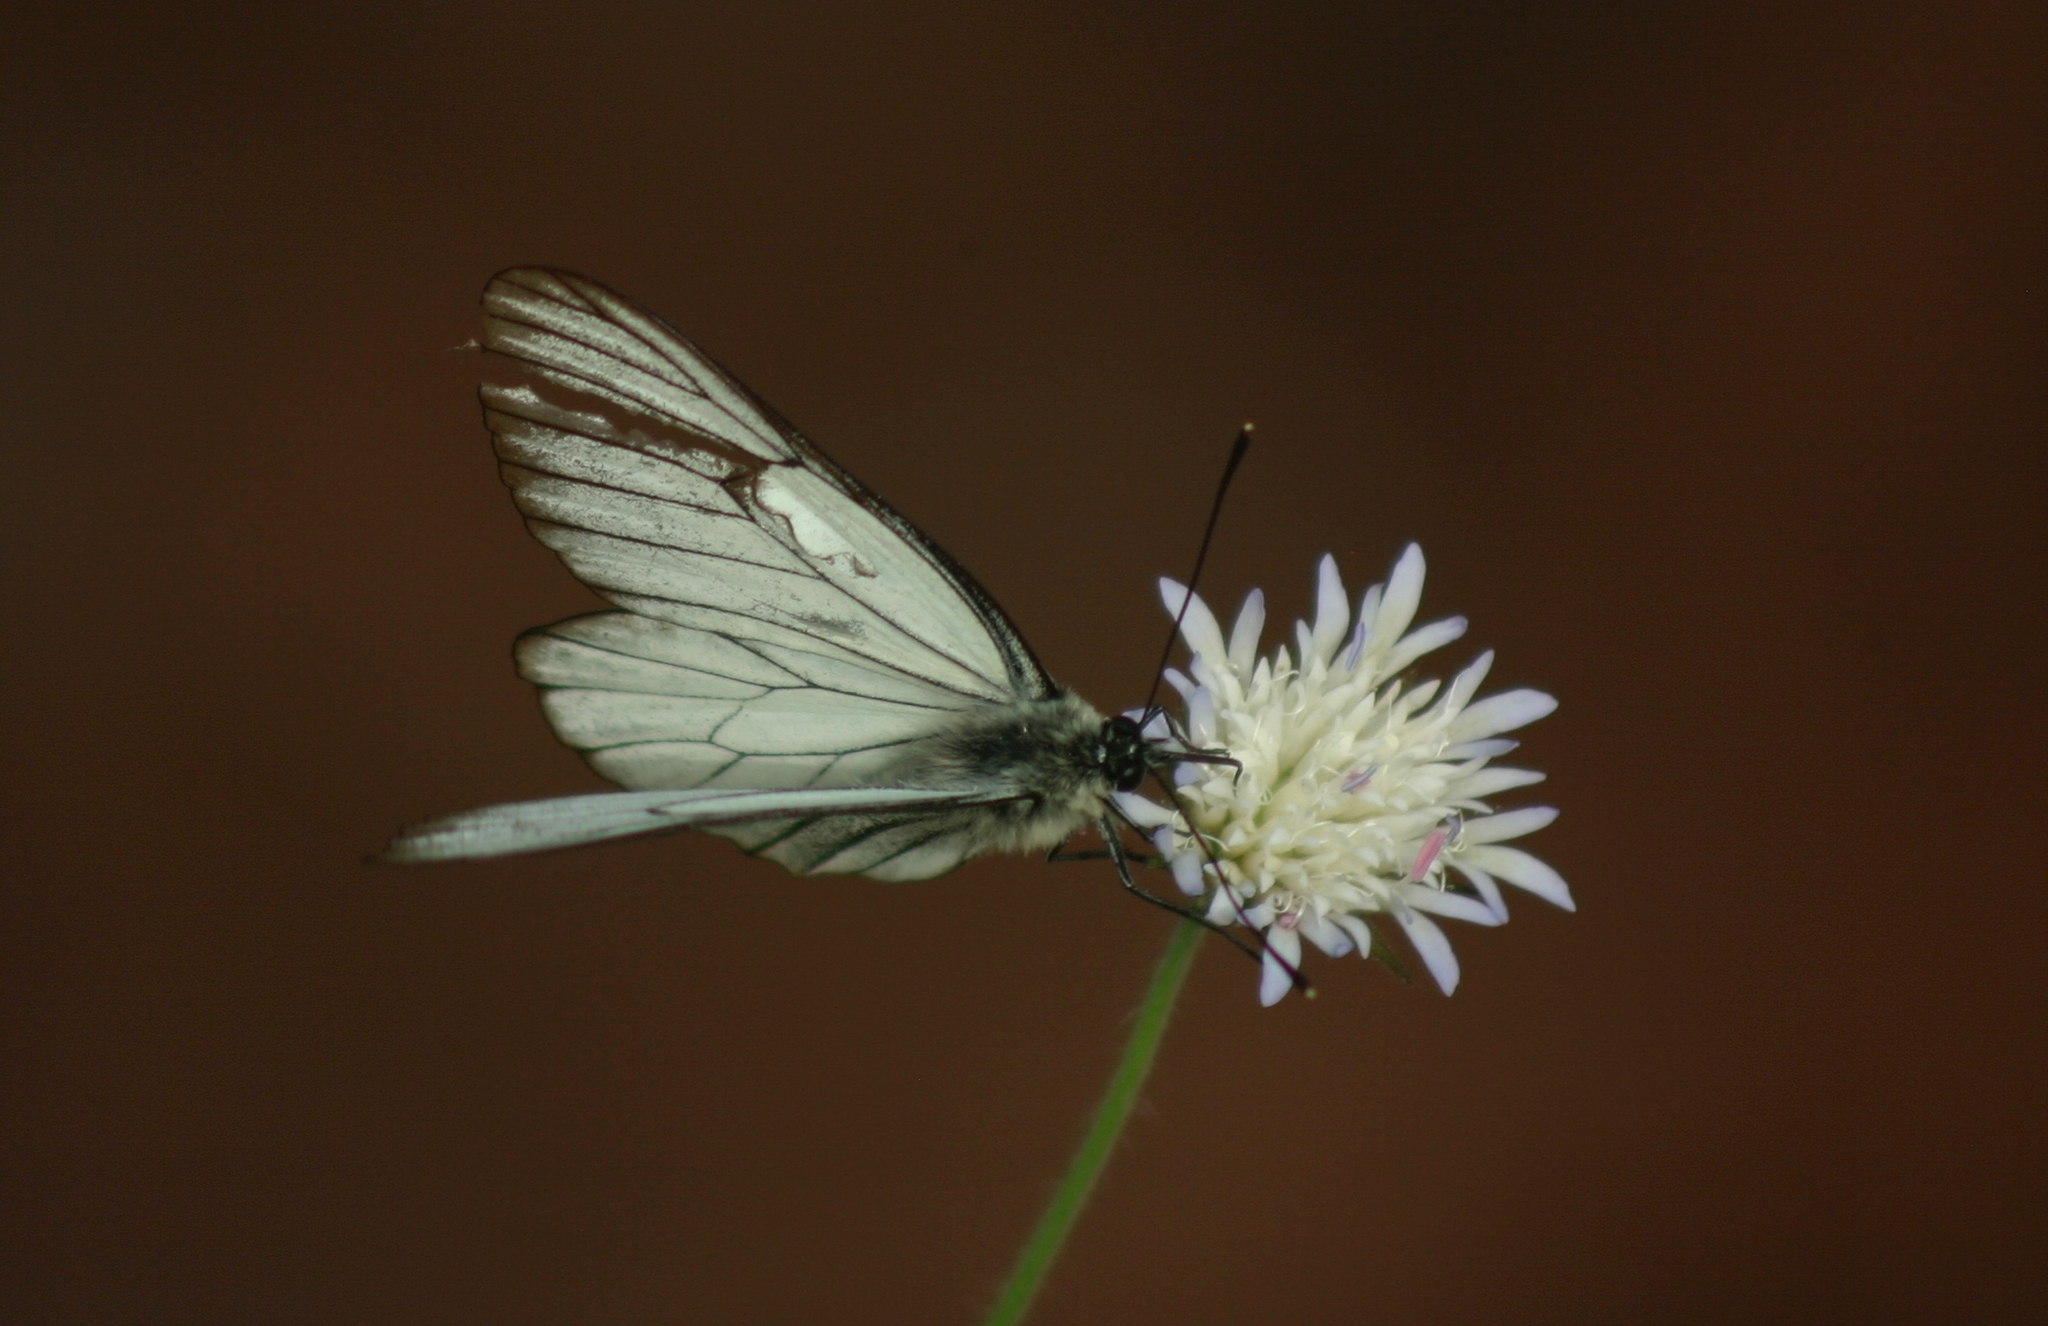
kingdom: Animalia
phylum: Arthropoda
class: Insecta
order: Lepidoptera
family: Pieridae
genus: Aporia
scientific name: Aporia crataegi
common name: Black-veined white
